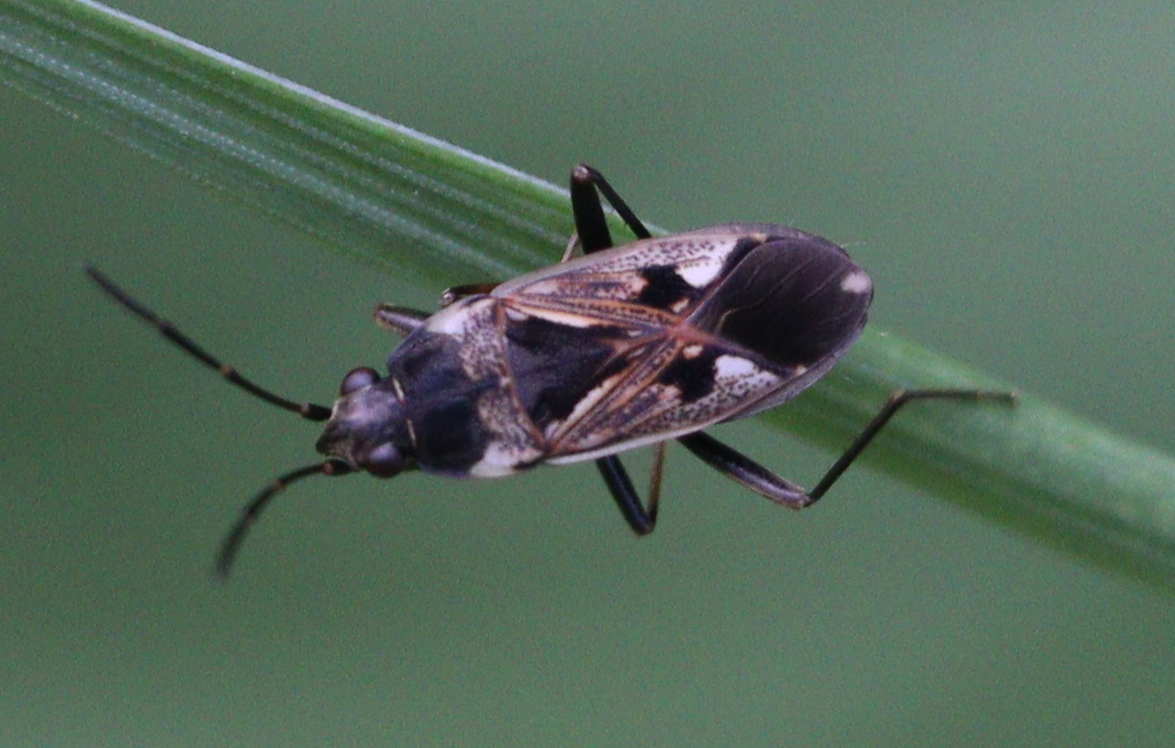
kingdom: Animalia
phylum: Arthropoda
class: Insecta
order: Hemiptera
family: Rhyparochromidae
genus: Rhyparochromus
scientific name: Rhyparochromus vulgaris
